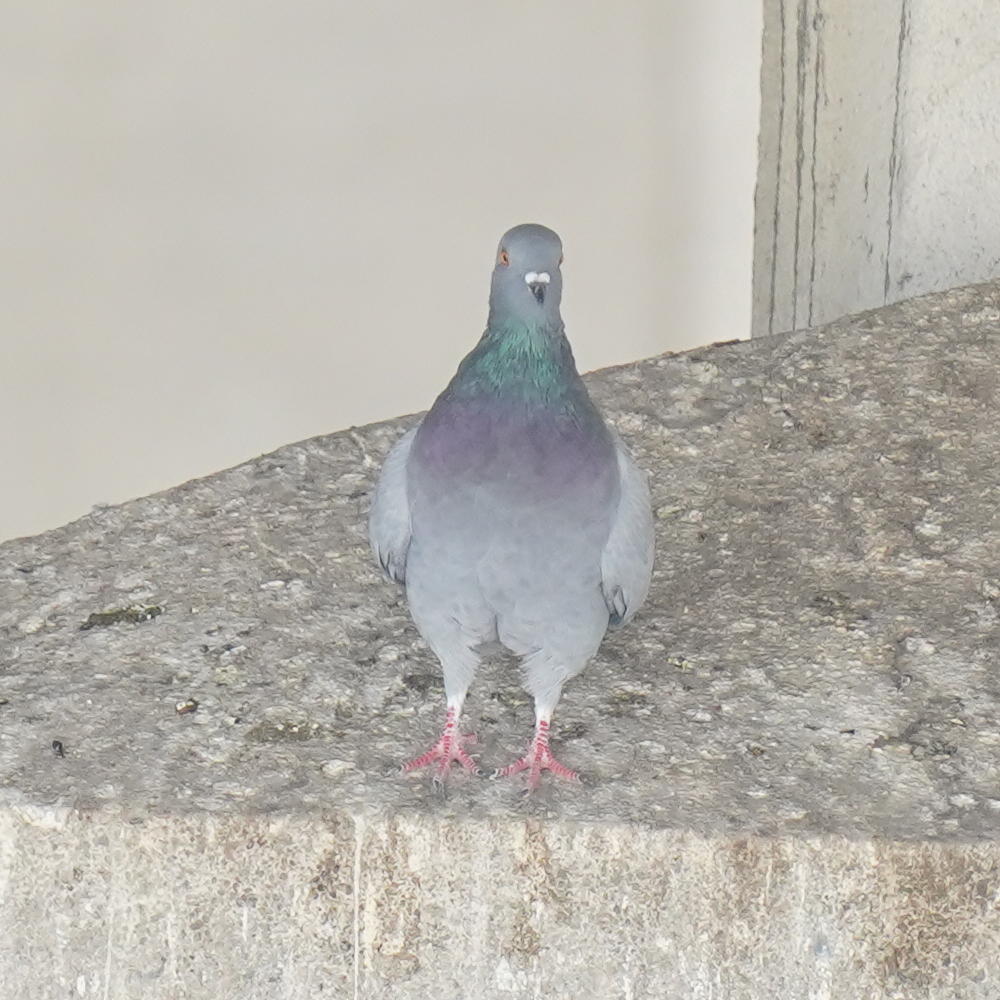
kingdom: Animalia
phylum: Chordata
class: Aves
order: Columbiformes
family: Columbidae
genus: Columba
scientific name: Columba livia
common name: Rock pigeon
